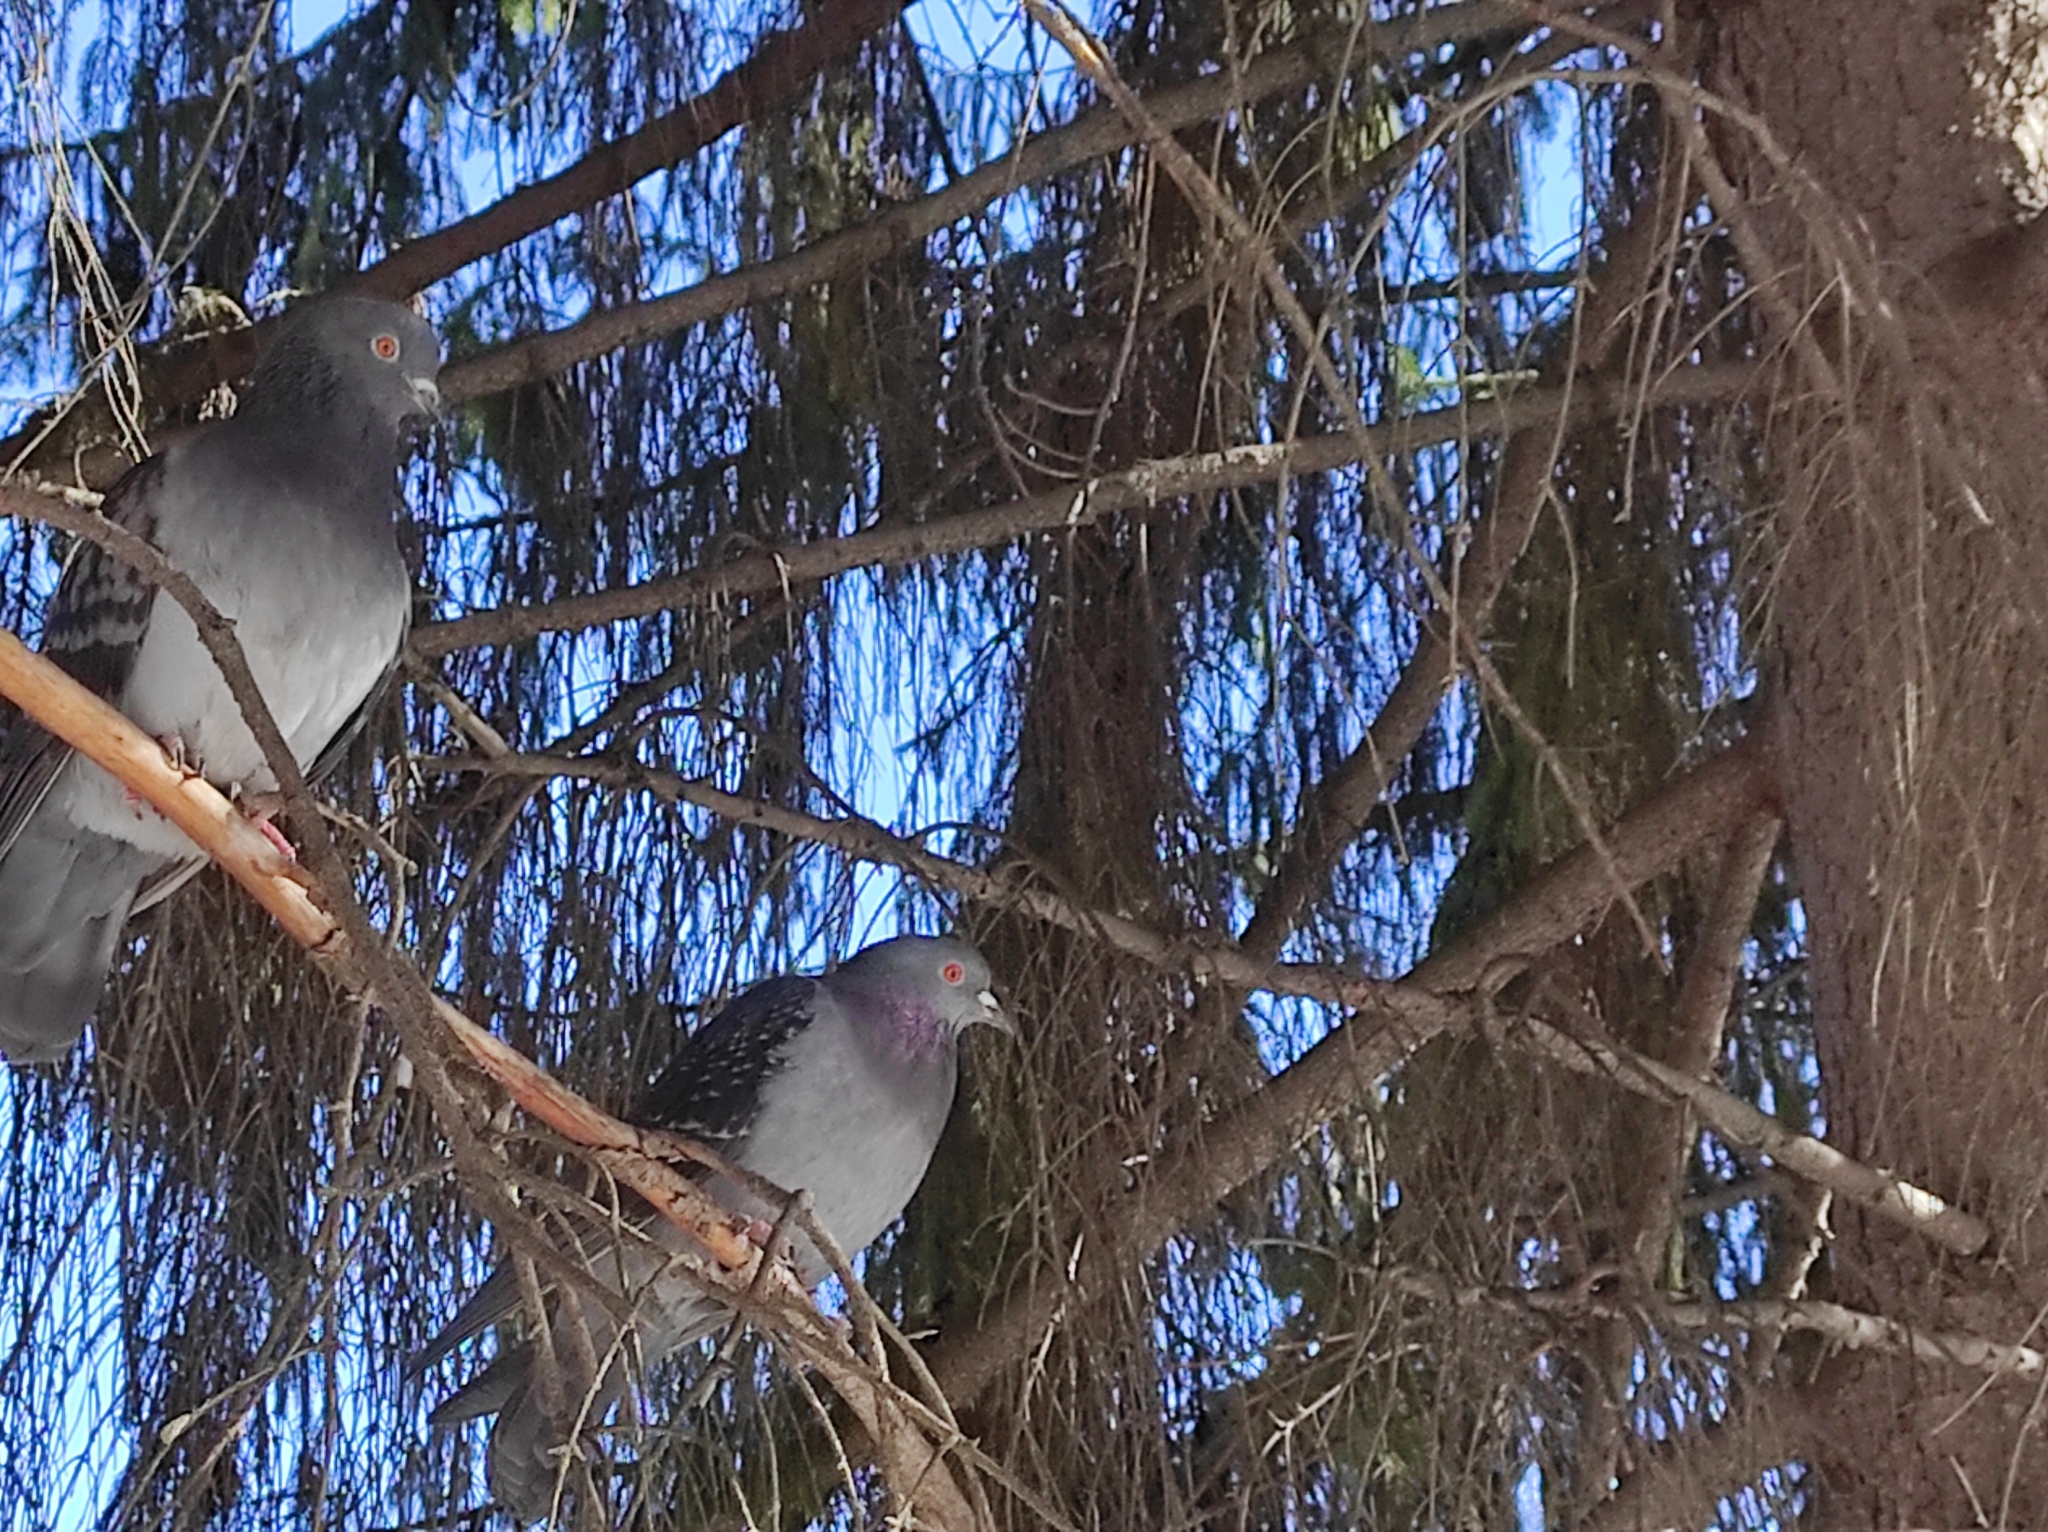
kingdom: Animalia
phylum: Chordata
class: Aves
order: Columbiformes
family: Columbidae
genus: Columba
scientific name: Columba livia
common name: Rock pigeon
